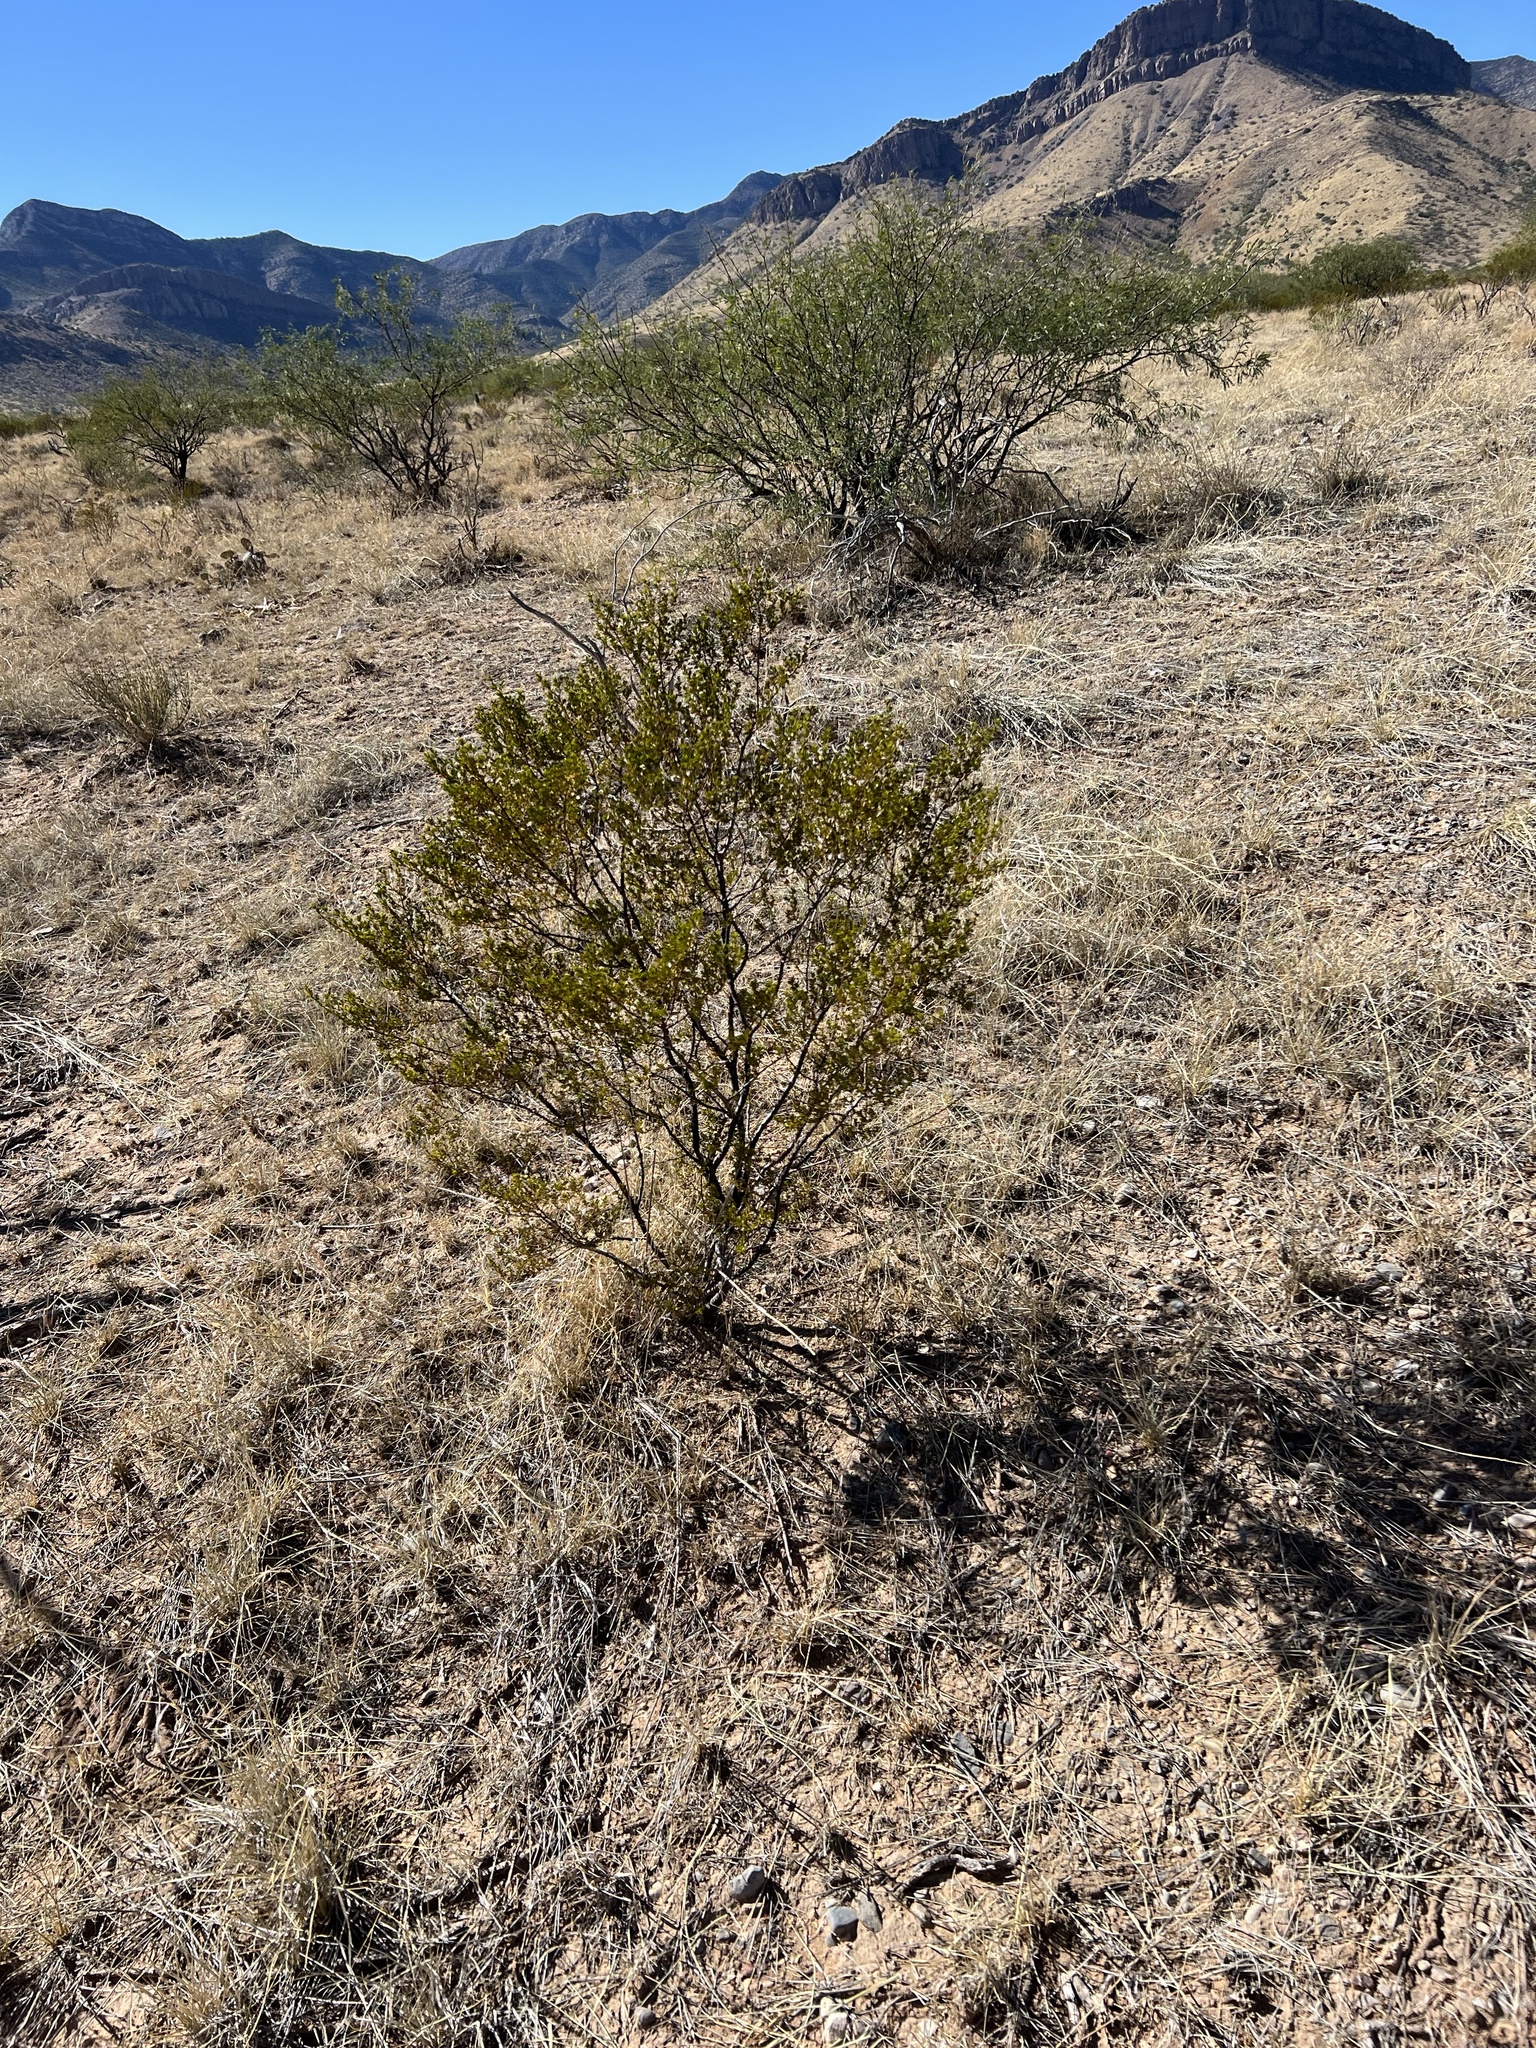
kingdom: Plantae
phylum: Tracheophyta
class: Magnoliopsida
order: Zygophyllales
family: Zygophyllaceae
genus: Larrea
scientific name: Larrea tridentata
